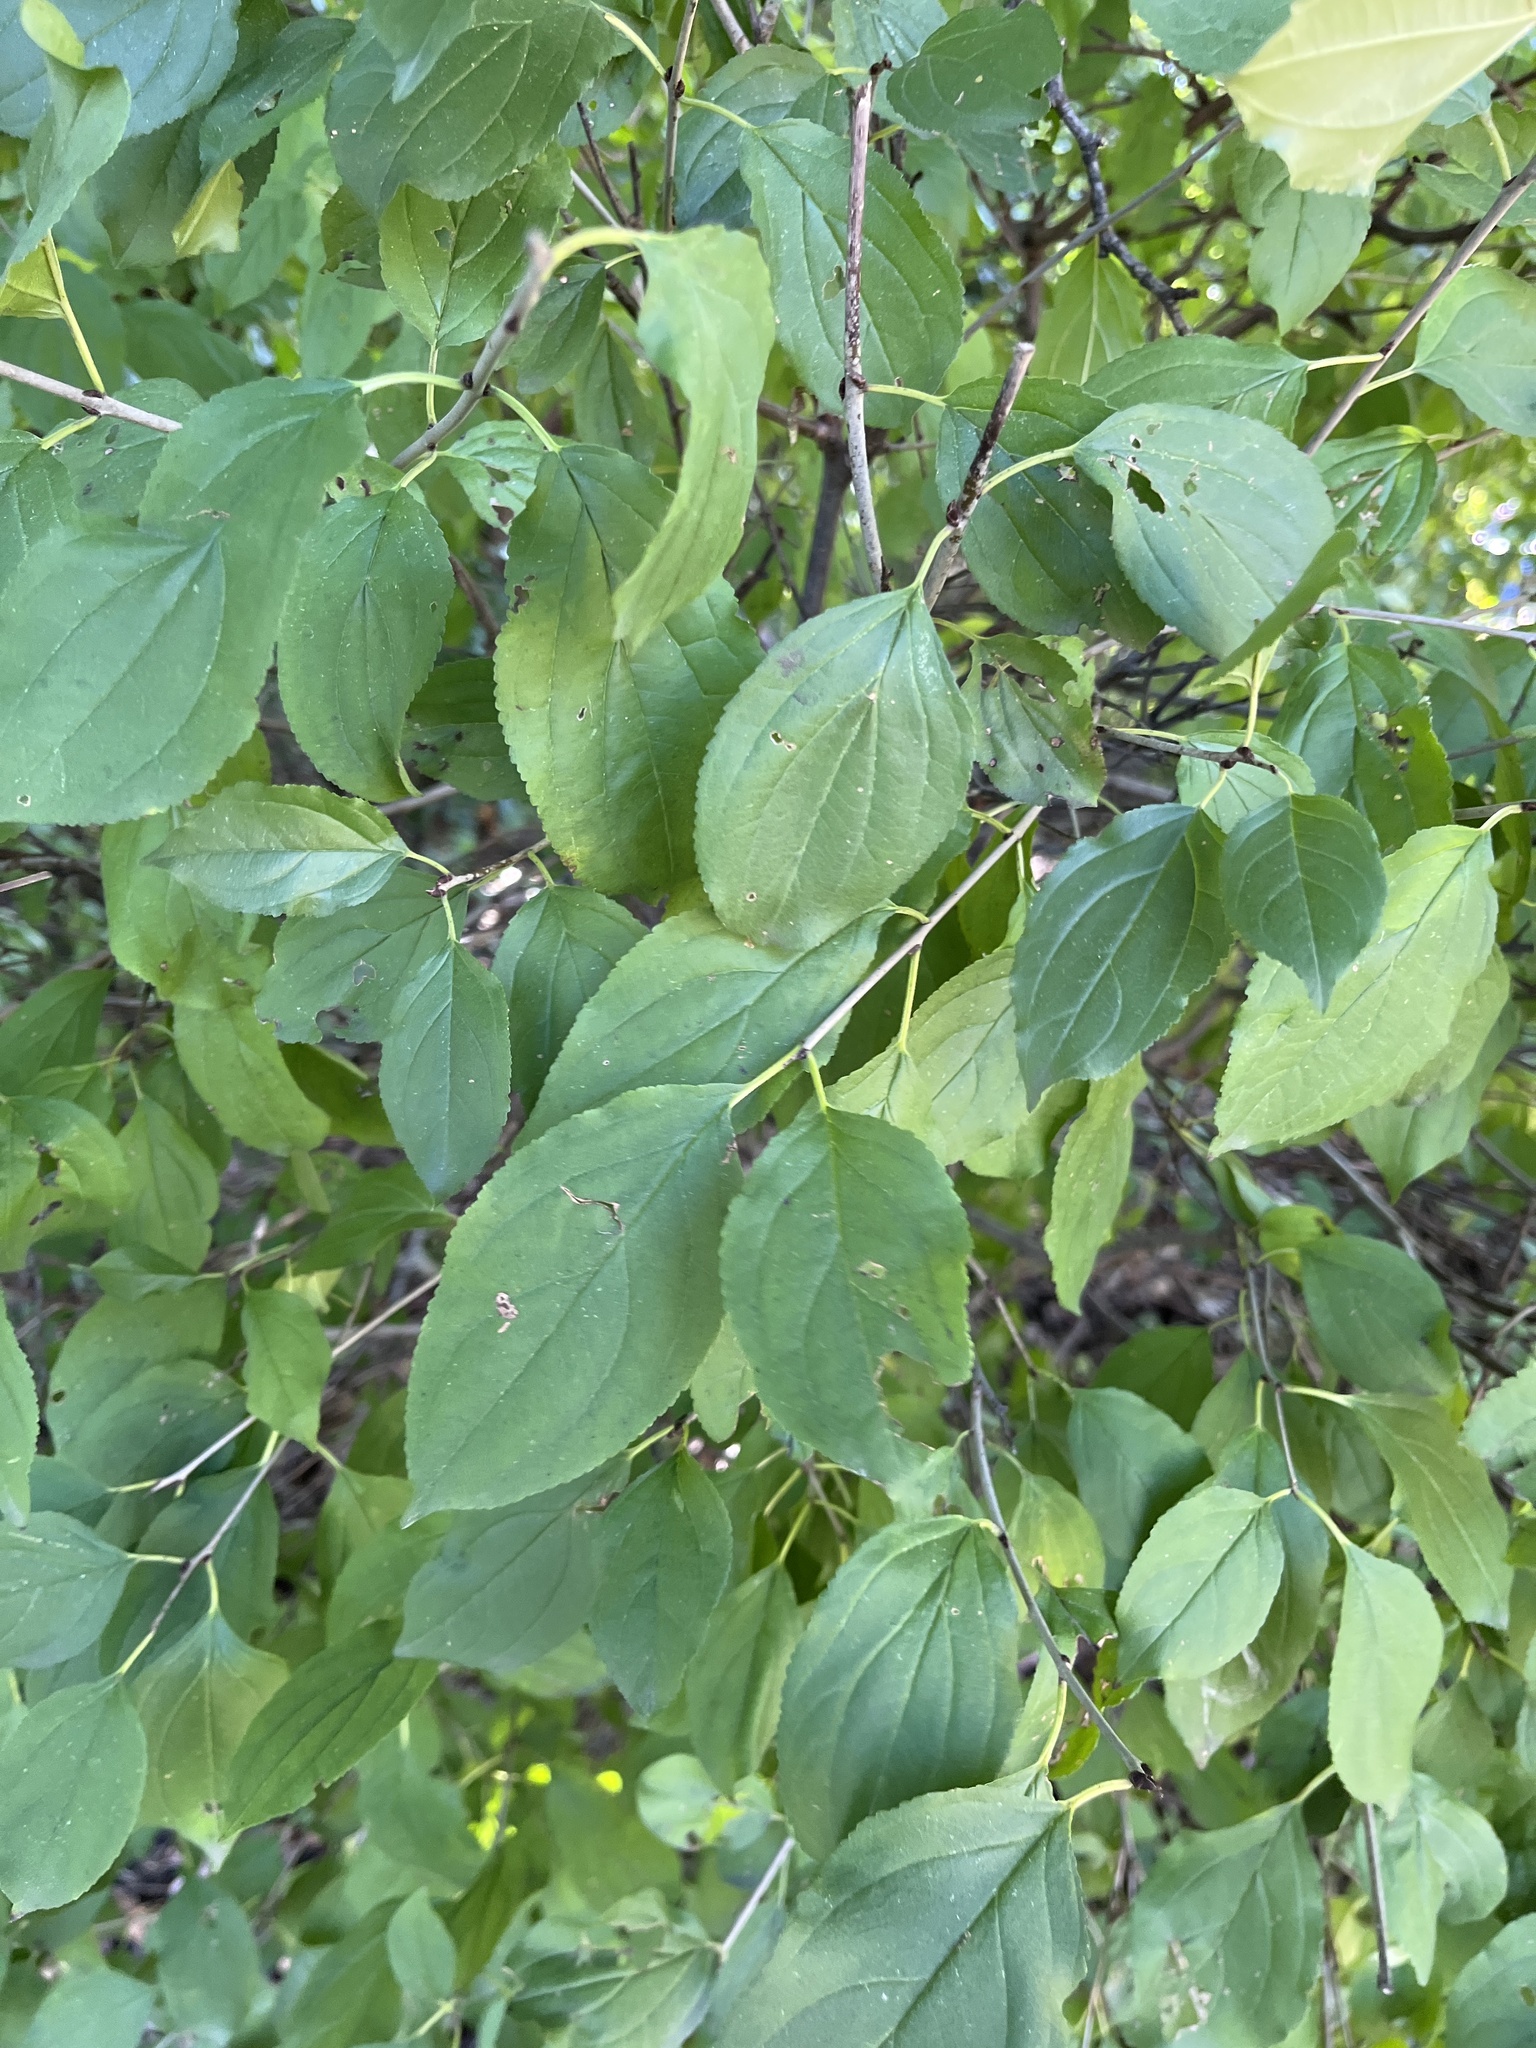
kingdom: Plantae
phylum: Tracheophyta
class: Magnoliopsida
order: Rosales
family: Rhamnaceae
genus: Rhamnus
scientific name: Rhamnus cathartica
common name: Common buckthorn
